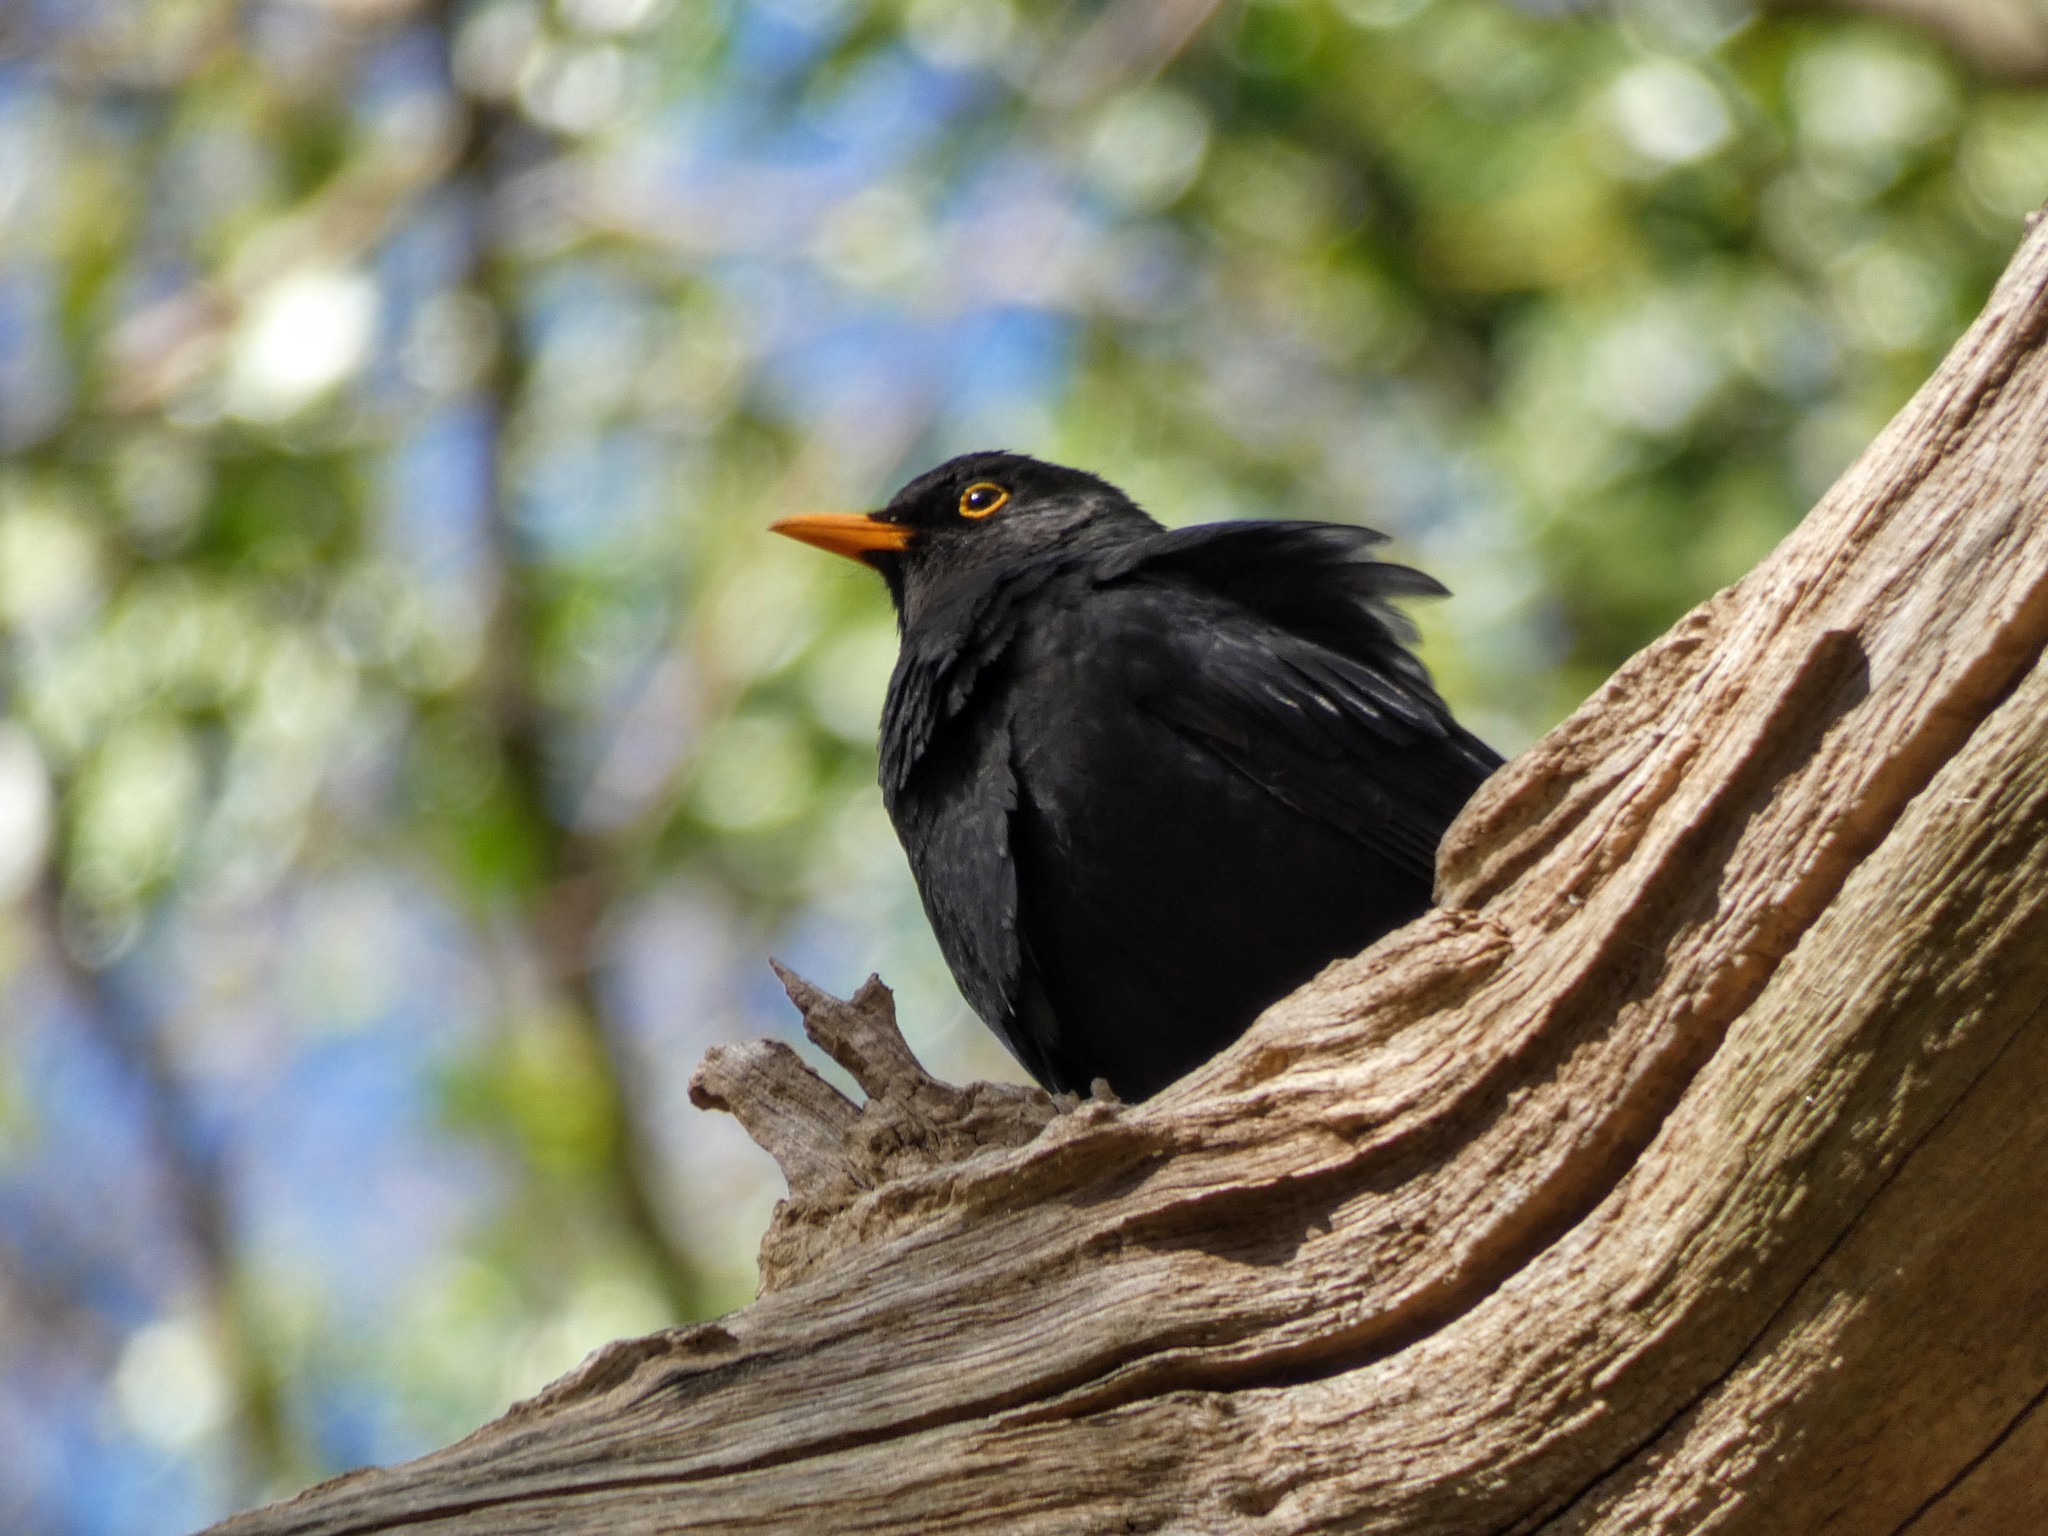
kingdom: Animalia
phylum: Chordata
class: Aves
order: Passeriformes
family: Turdidae
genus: Turdus
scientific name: Turdus merula
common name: Common blackbird
